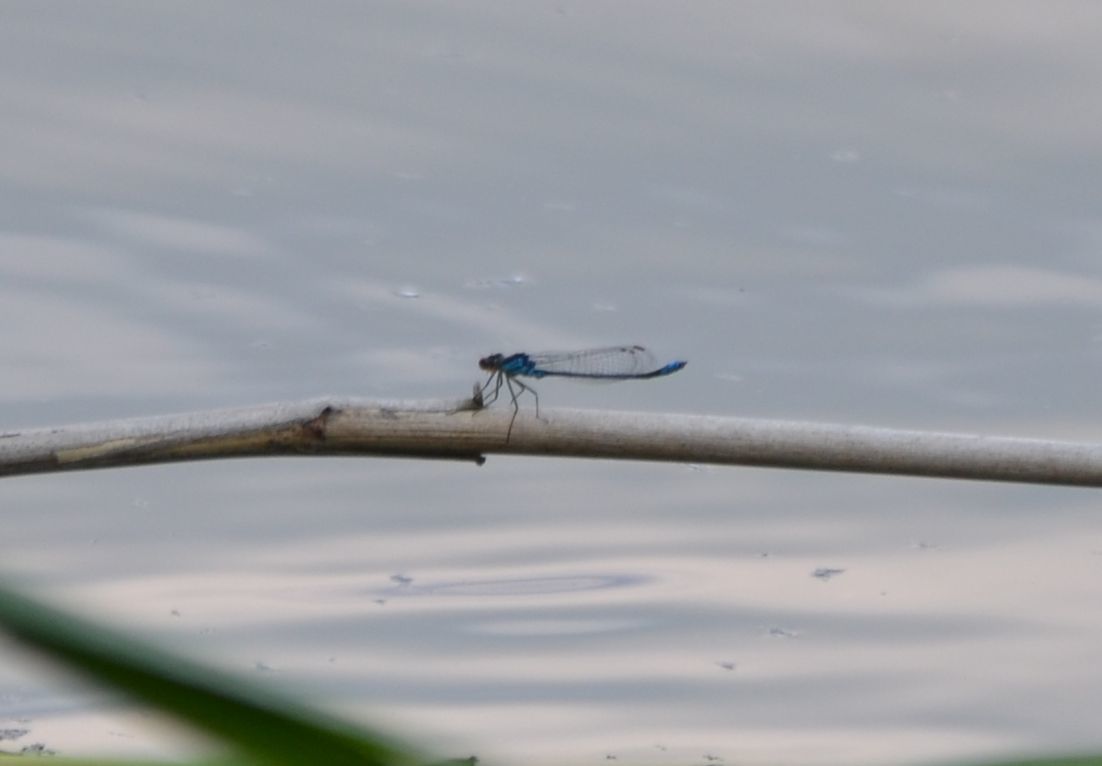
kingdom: Animalia
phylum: Arthropoda
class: Insecta
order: Odonata
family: Coenagrionidae
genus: Erythromma
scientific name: Erythromma viridulum
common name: Small red-eyed damselfly
